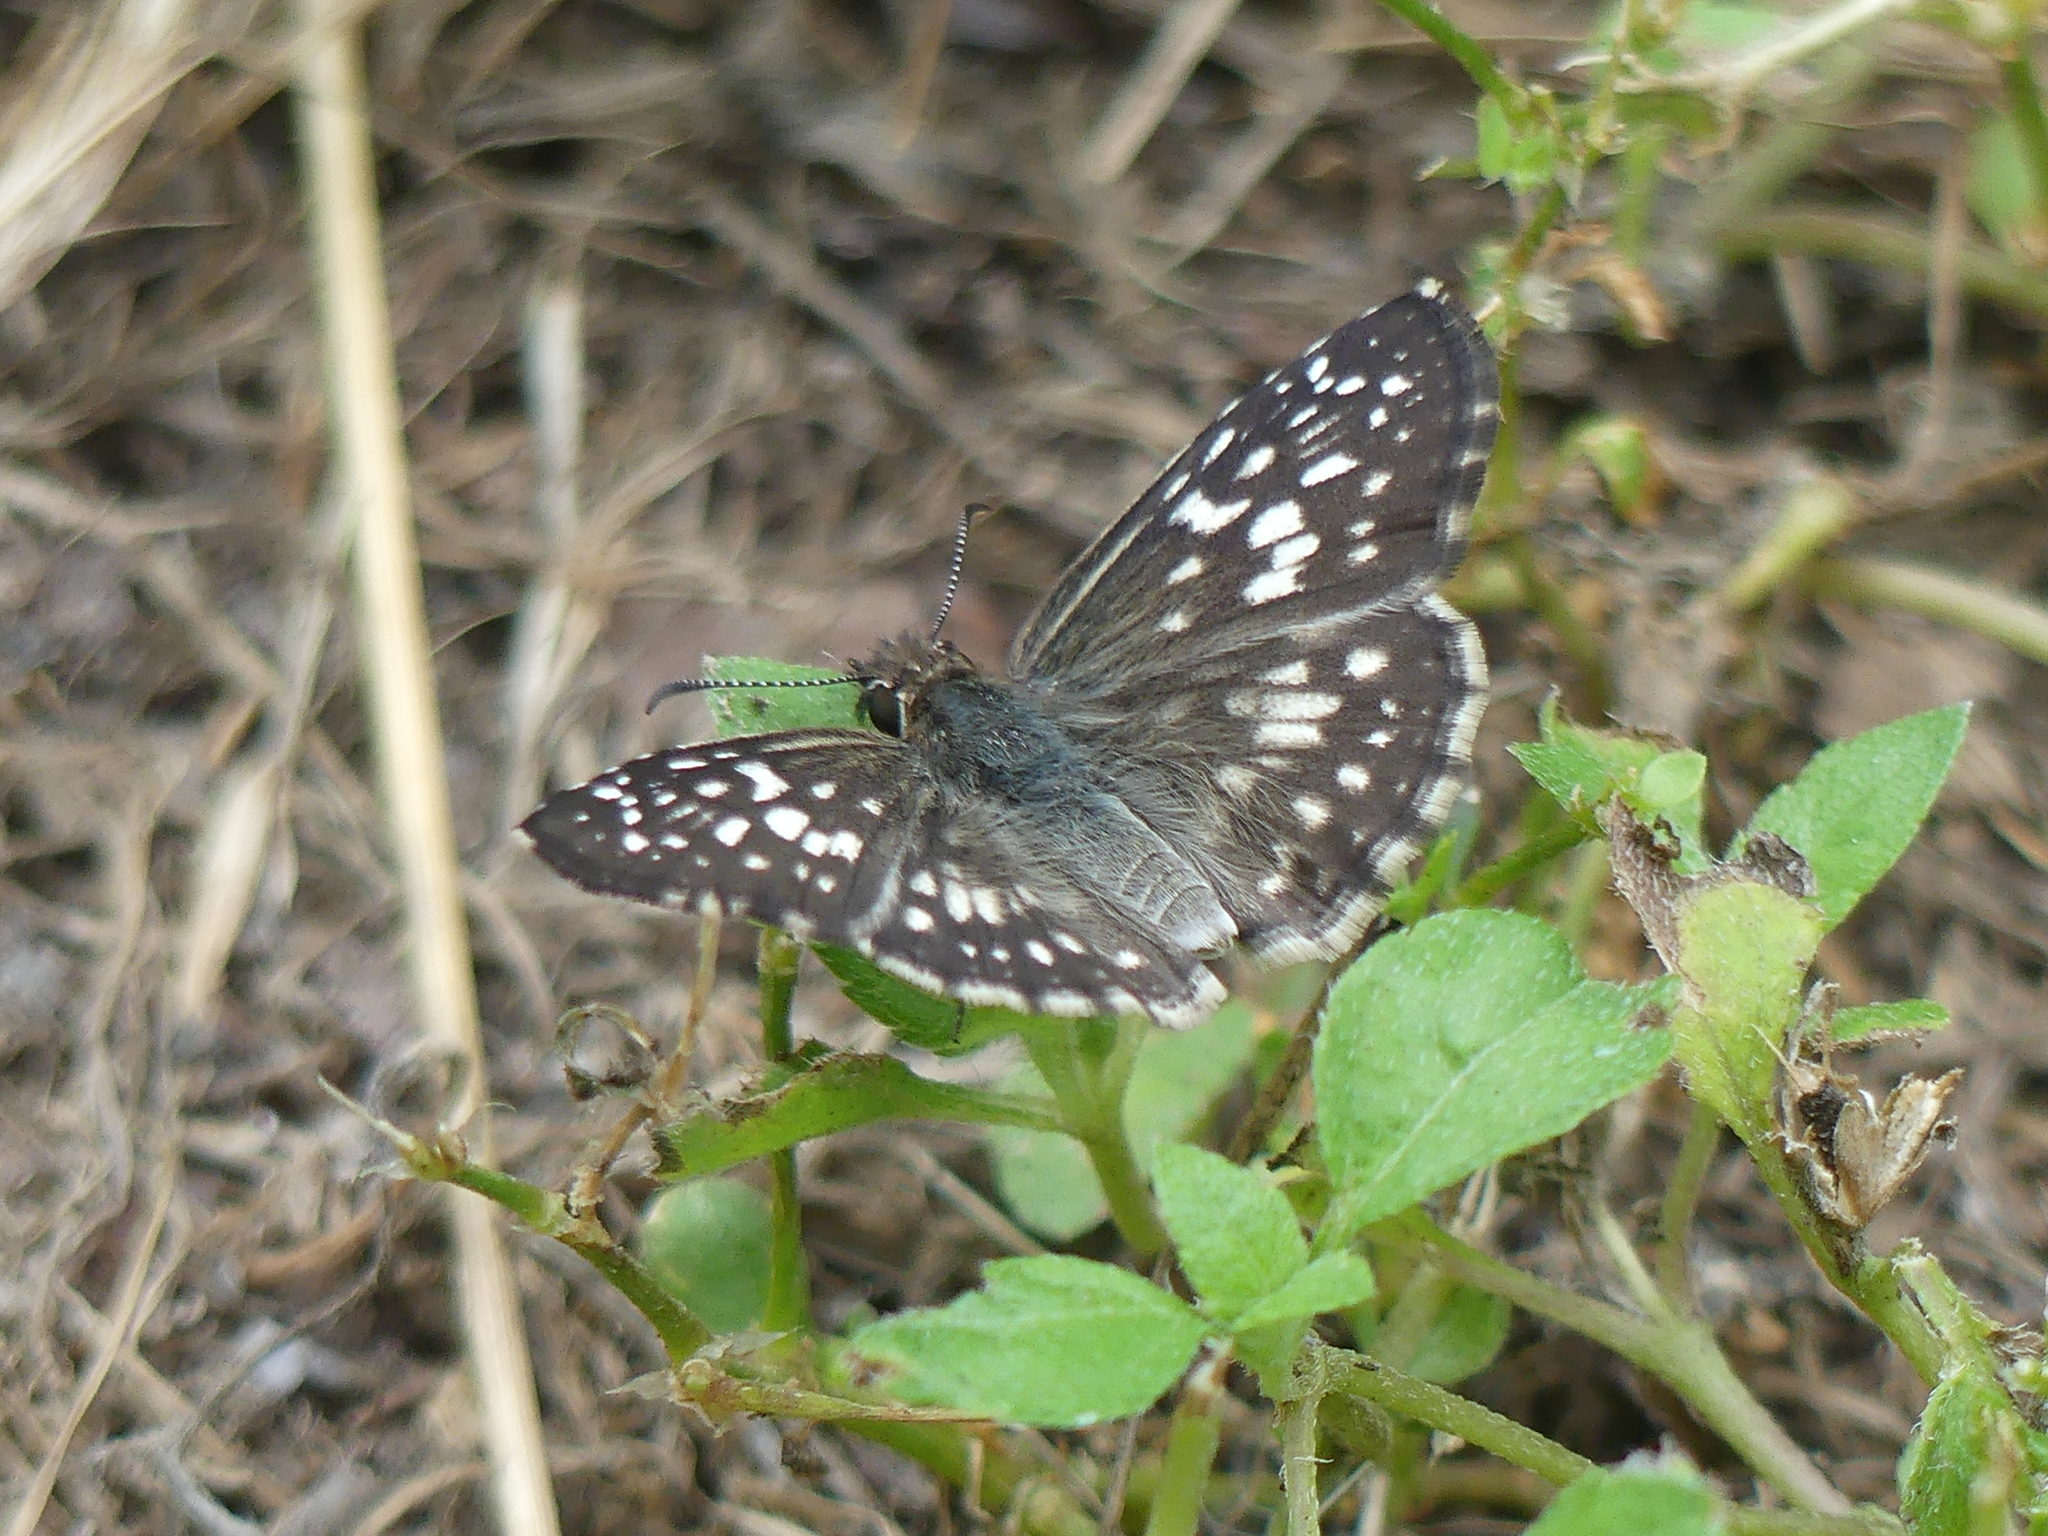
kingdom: Animalia
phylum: Arthropoda
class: Insecta
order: Lepidoptera
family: Hesperiidae
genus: Pyrgus
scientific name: Pyrgus oileus
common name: Tropical checkered-skipper
